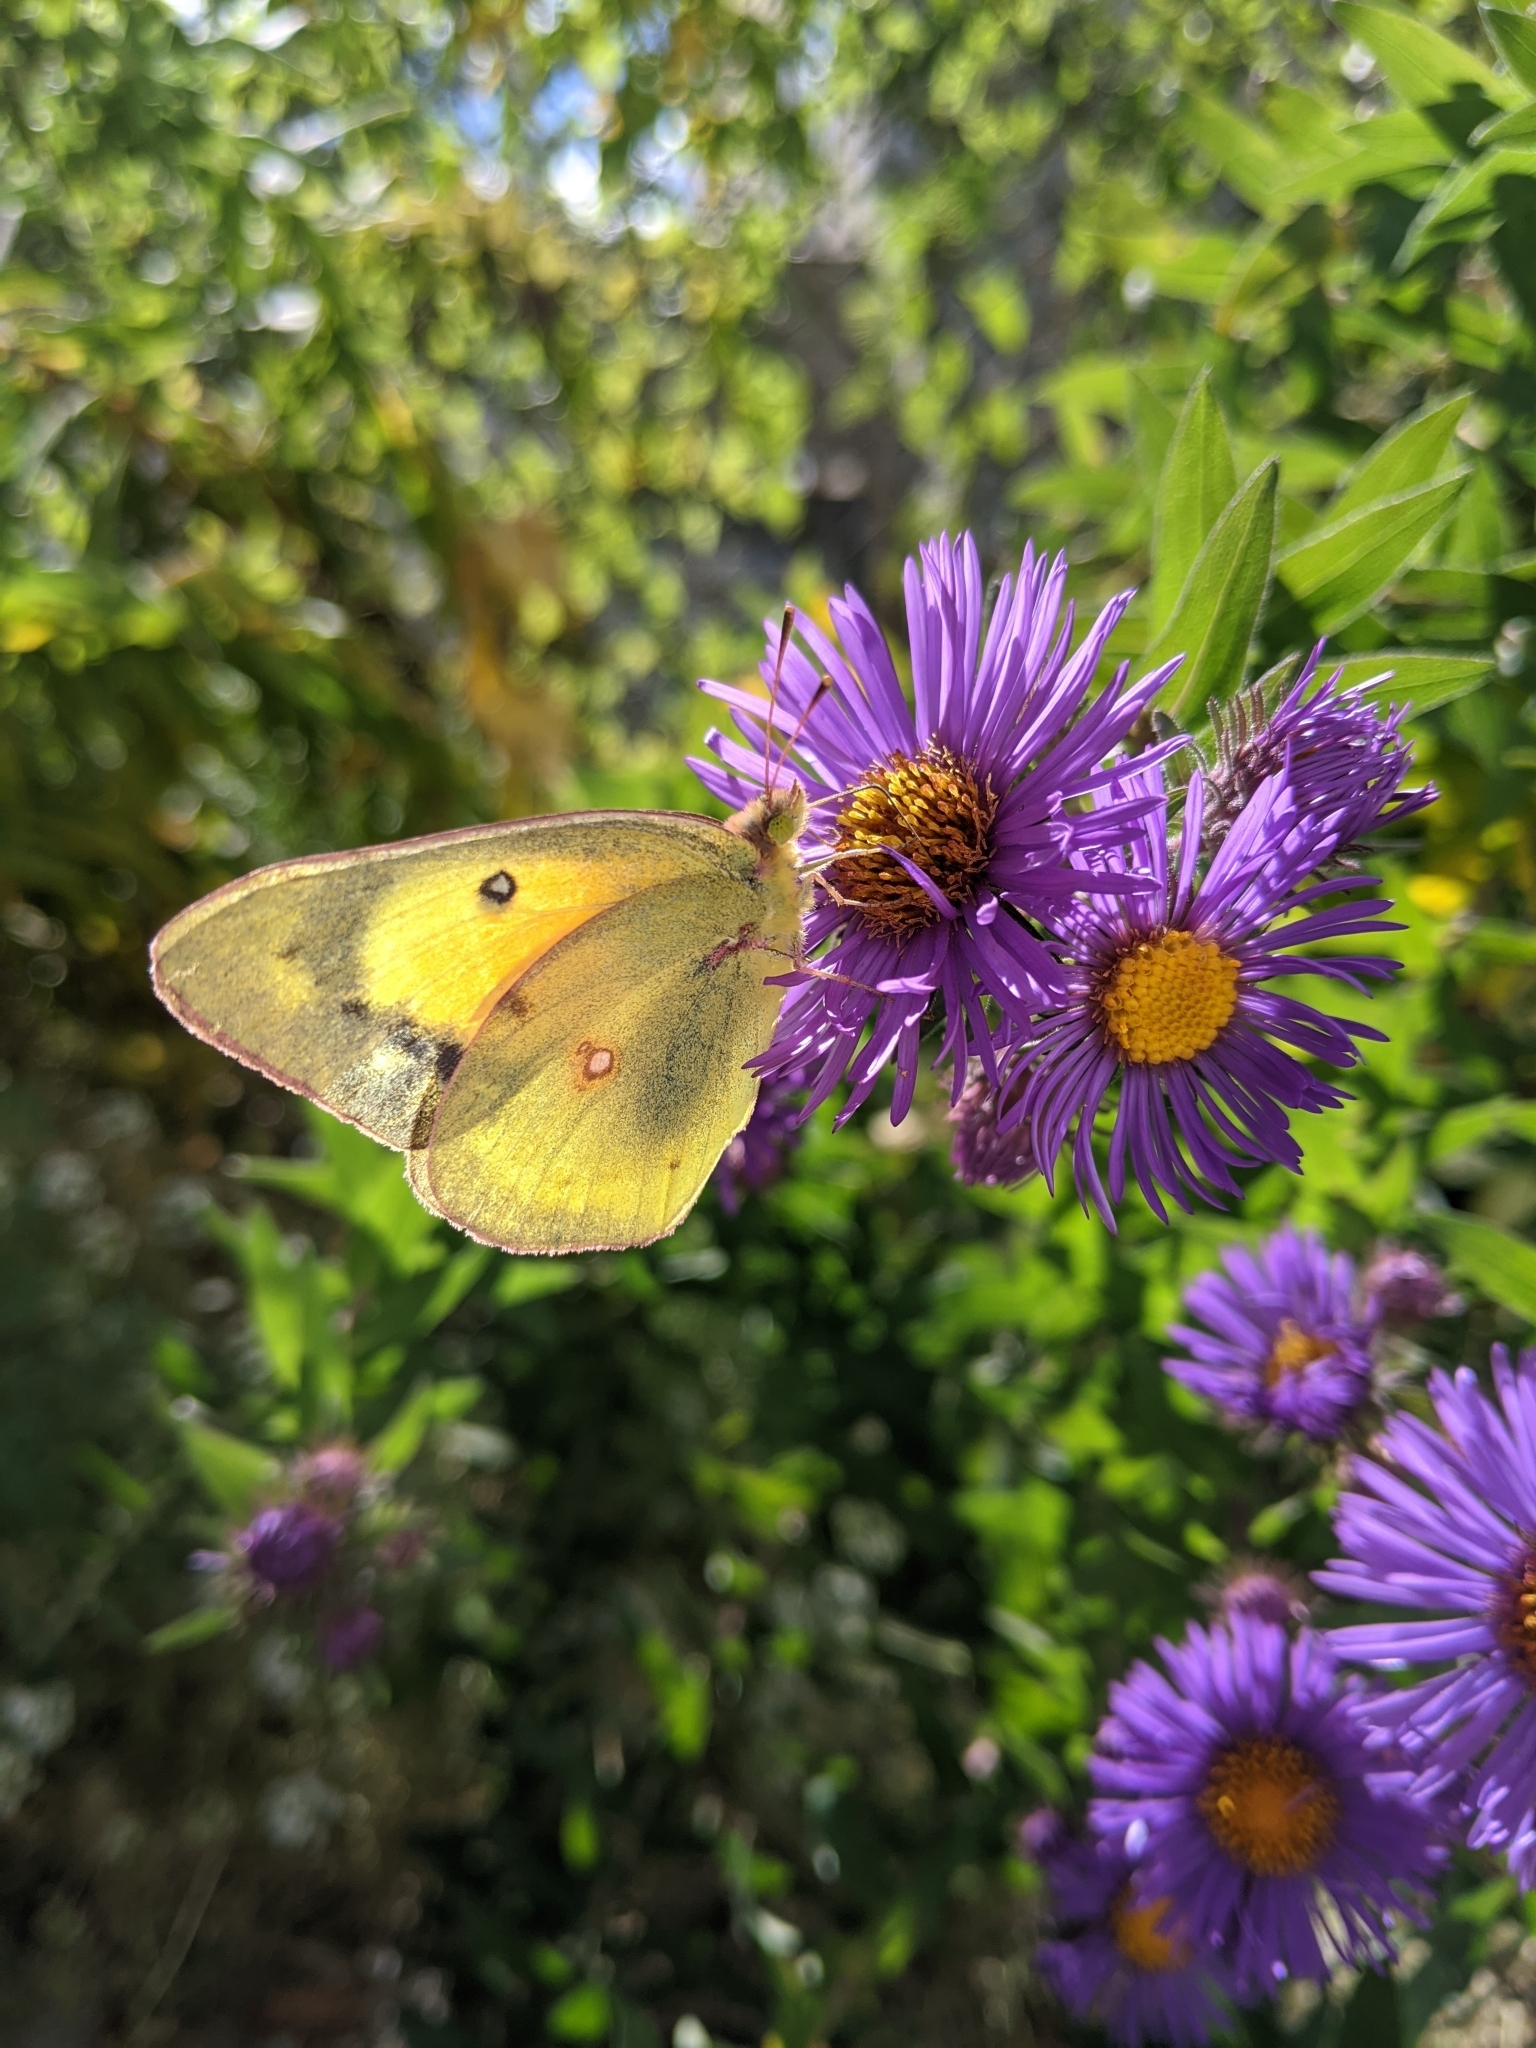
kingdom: Animalia
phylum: Arthropoda
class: Insecta
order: Lepidoptera
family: Pieridae
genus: Colias
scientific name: Colias eurytheme
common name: Alfalfa butterfly
